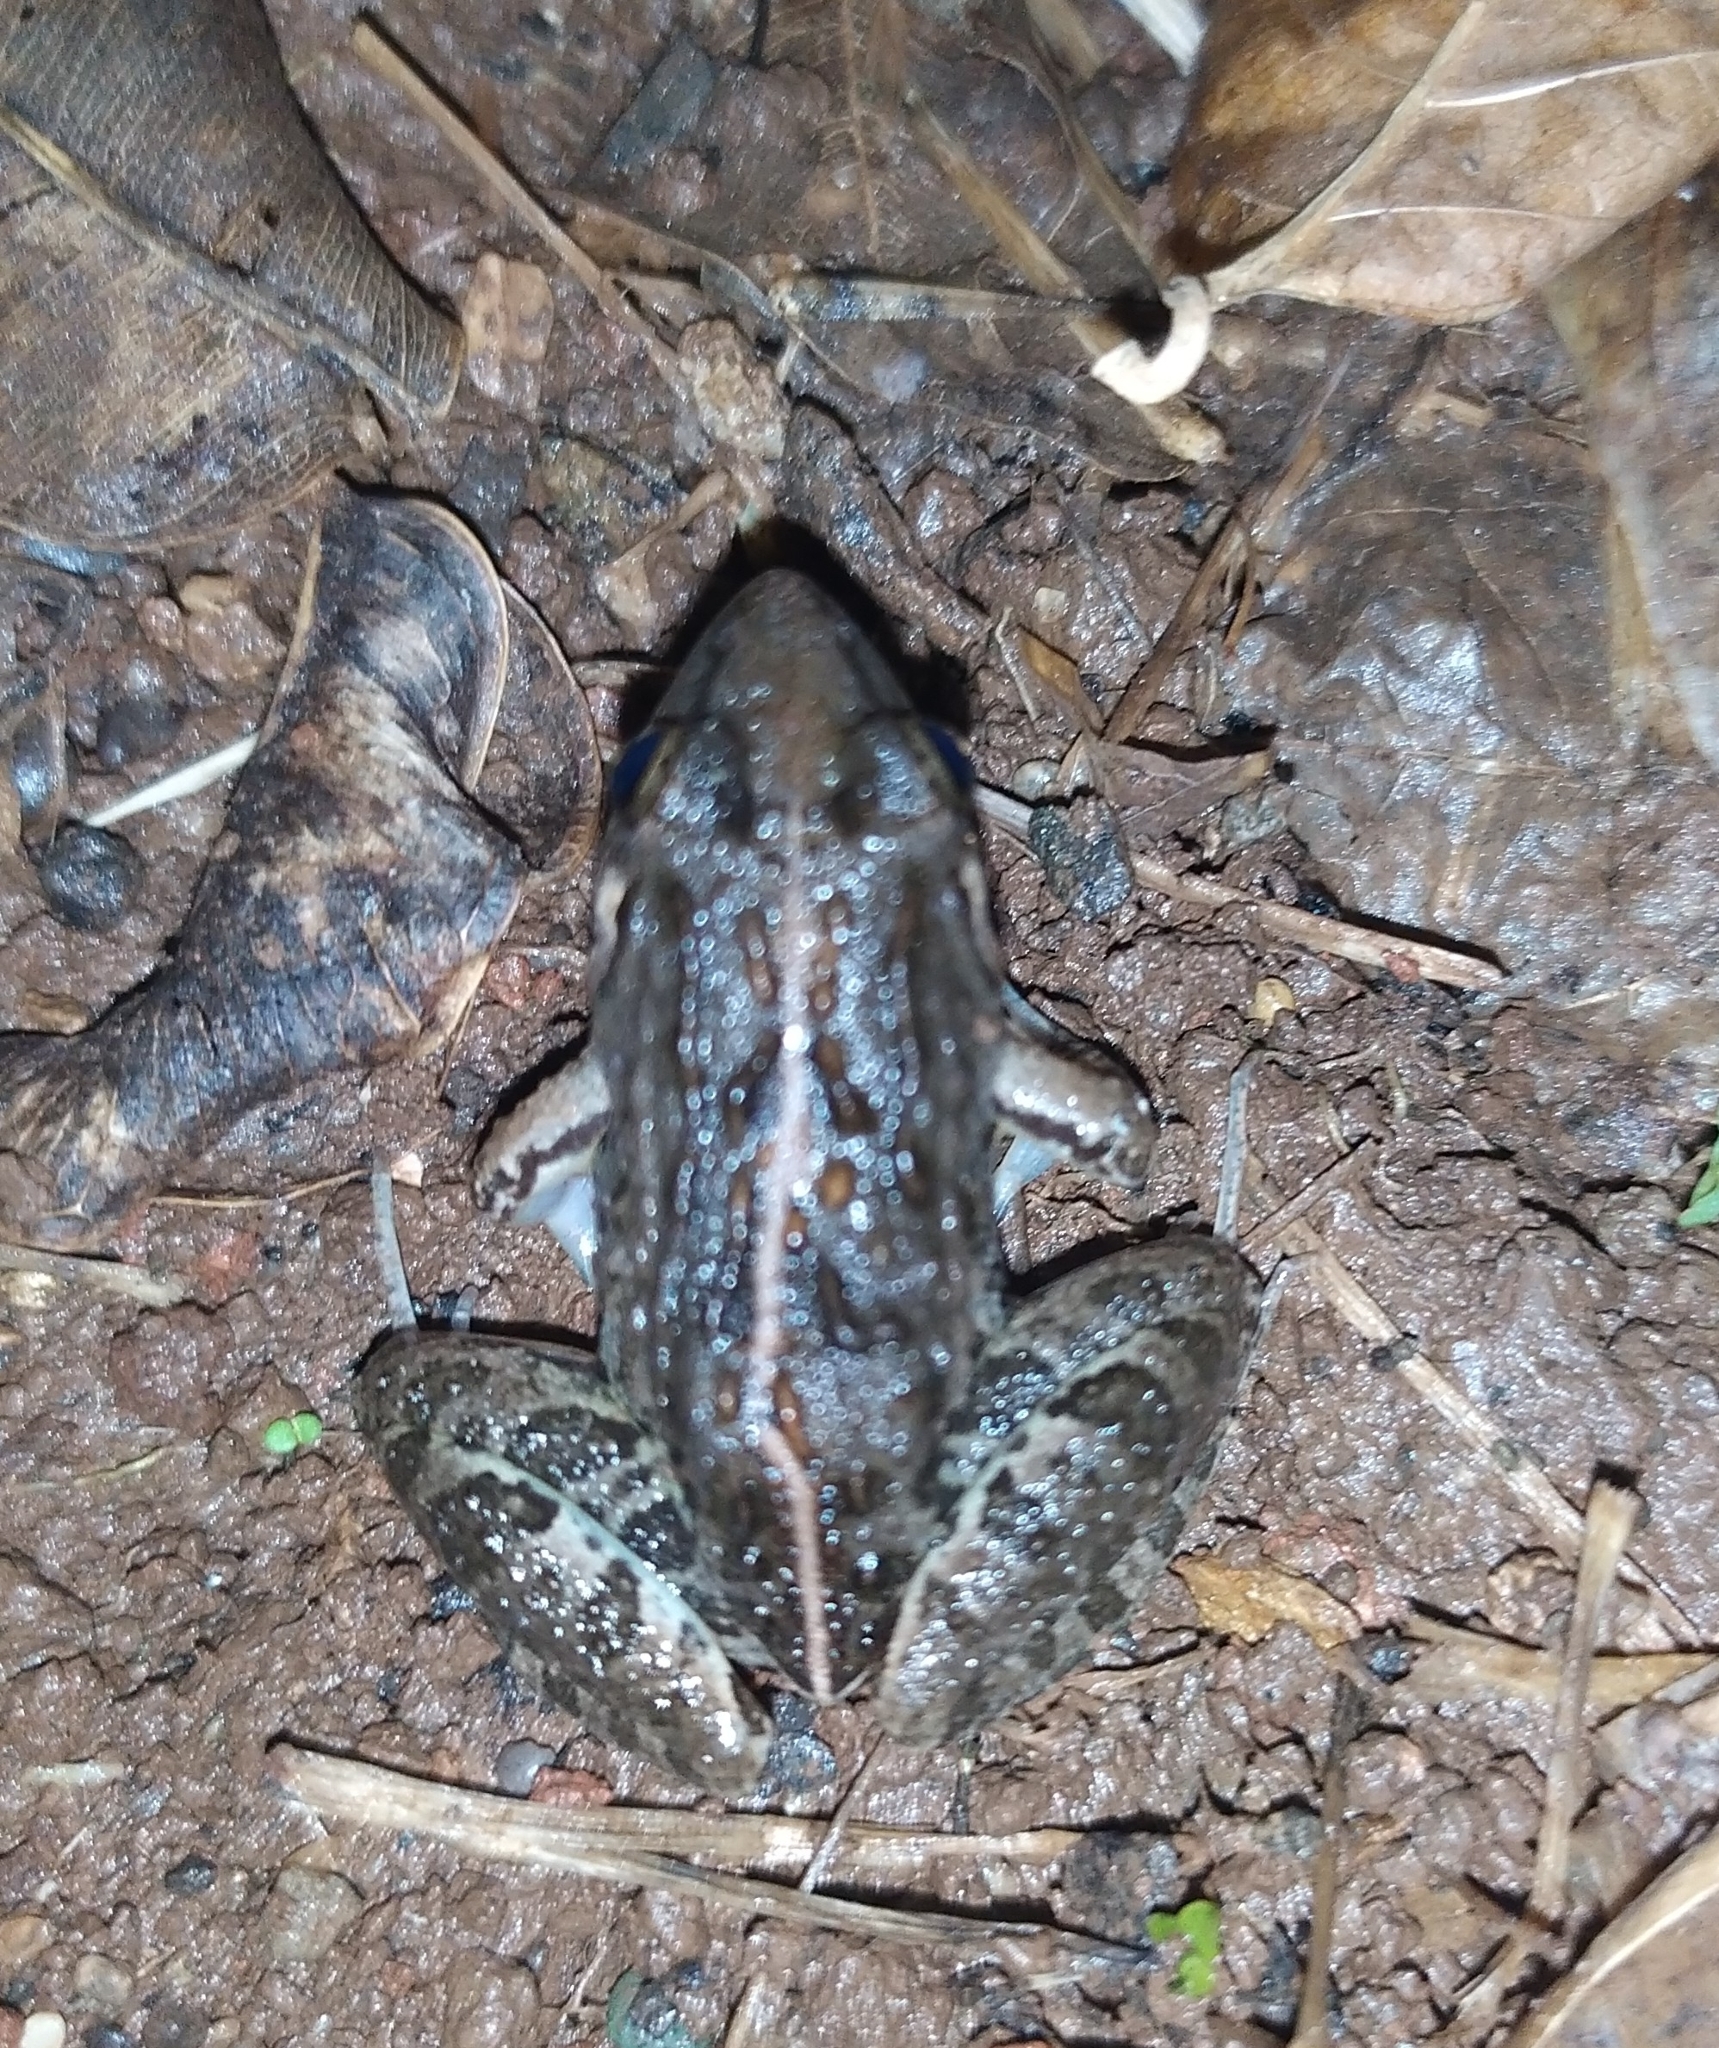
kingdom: Animalia
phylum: Chordata
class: Amphibia
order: Anura
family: Dicroglossidae
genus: Fejervarya
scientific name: Fejervarya limnocharis
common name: Asian grass frog/common pond frog/field frog/grass frog/indian rice frog
